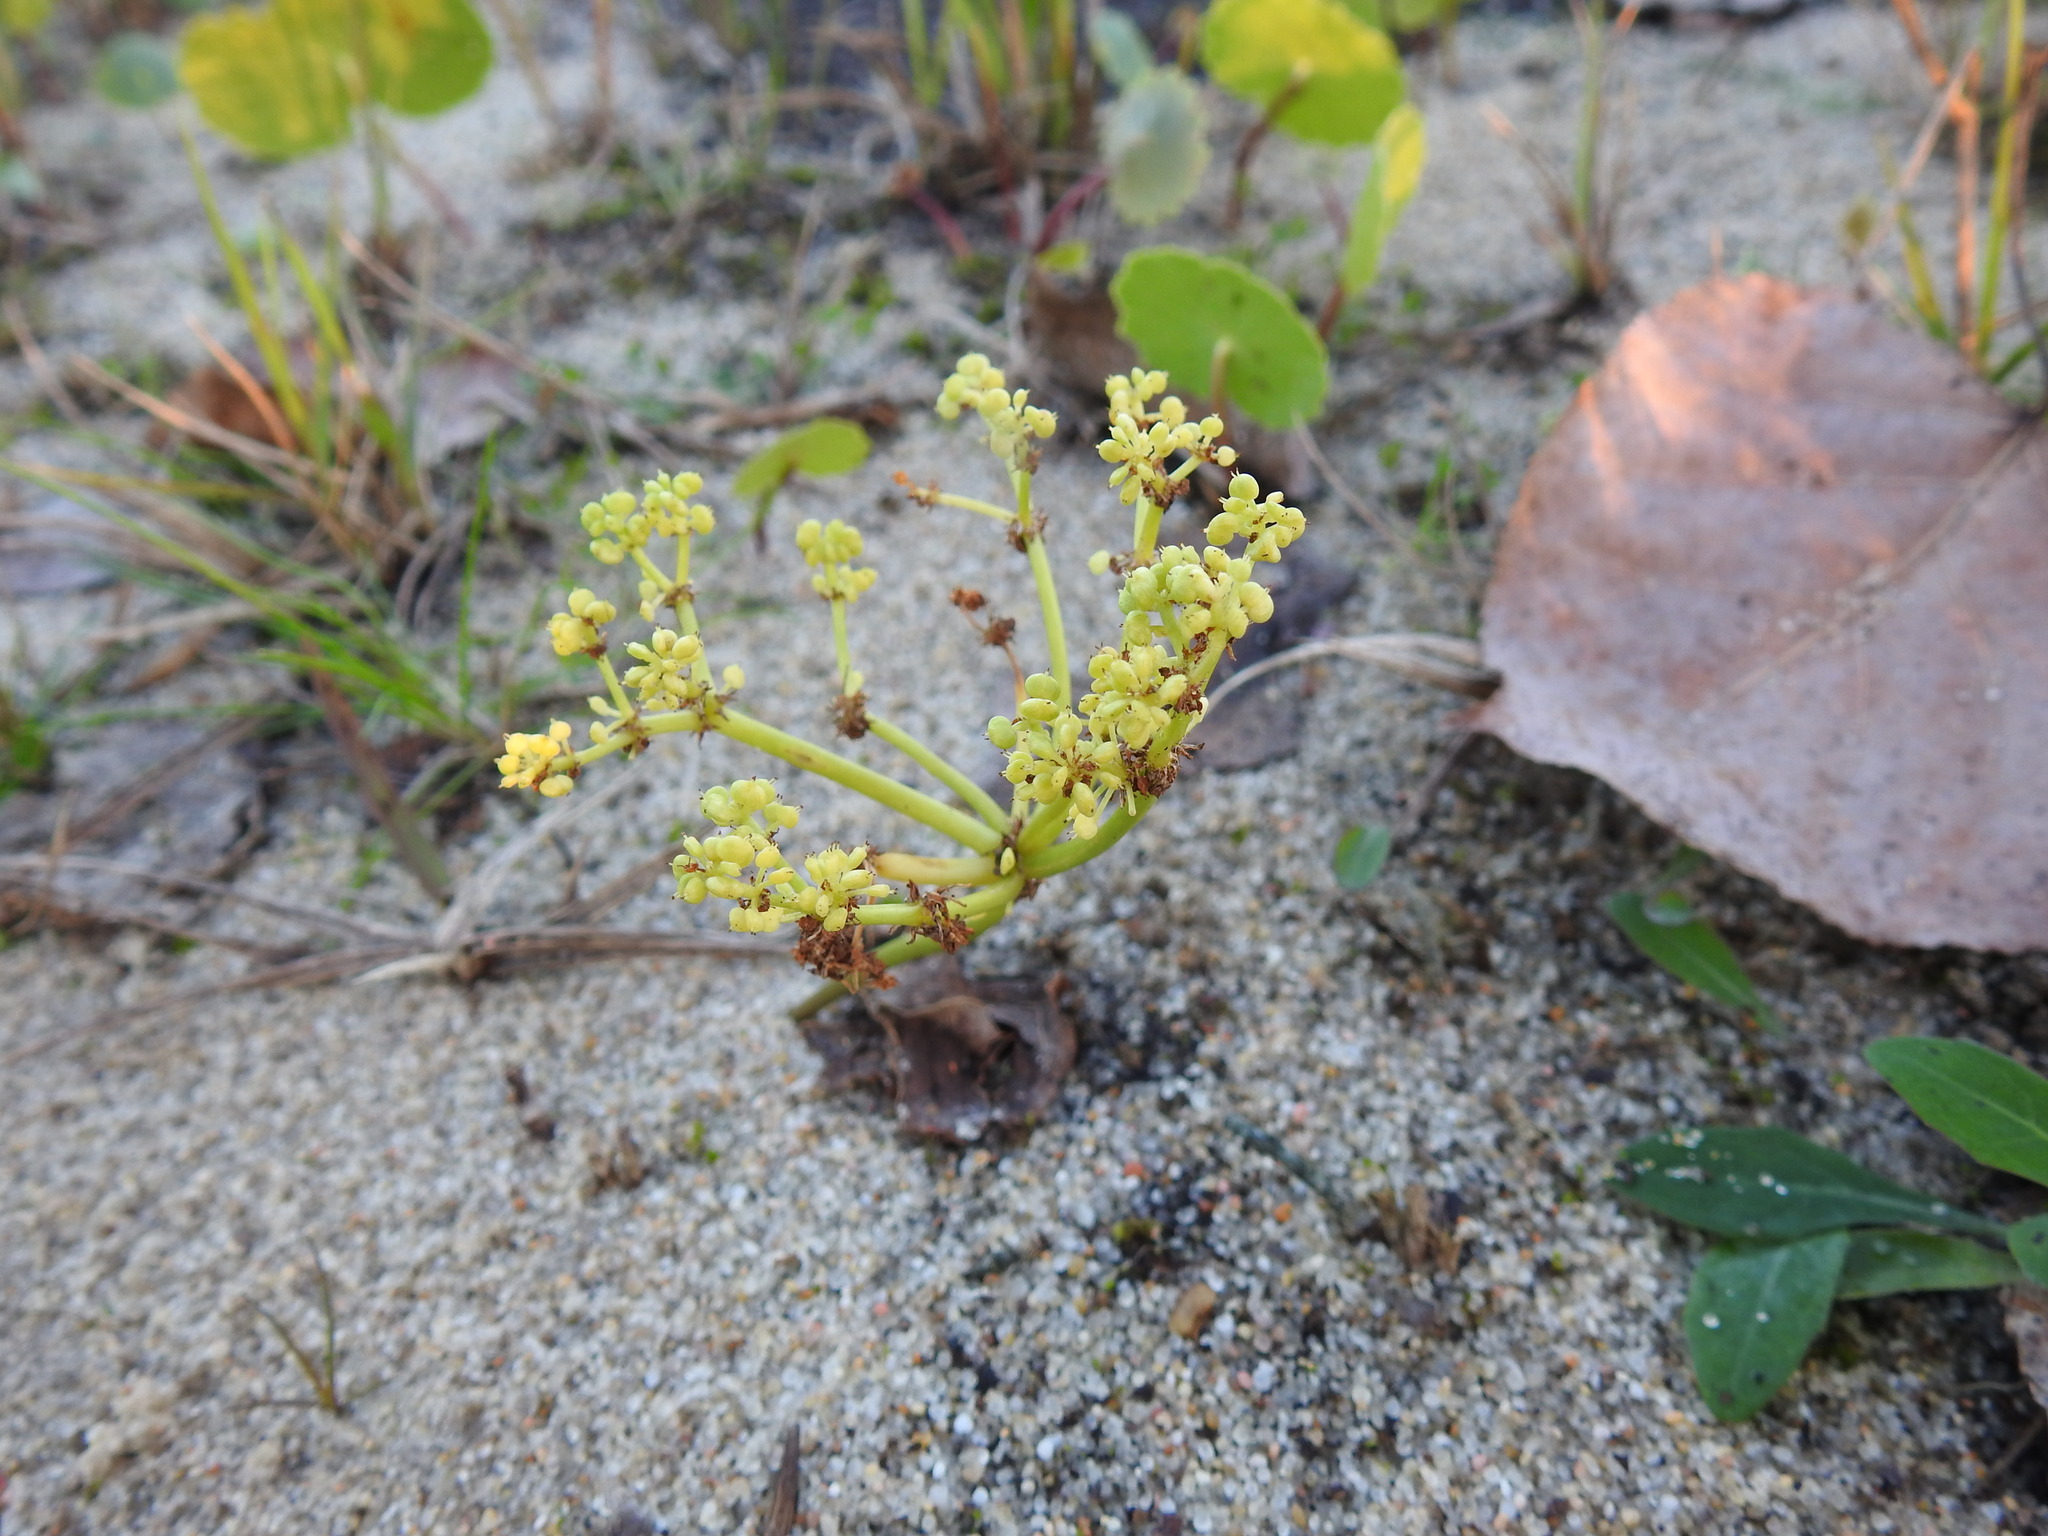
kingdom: Plantae
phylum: Tracheophyta
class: Magnoliopsida
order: Apiales
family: Araliaceae
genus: Hydrocotyle
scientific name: Hydrocotyle bonariensis
